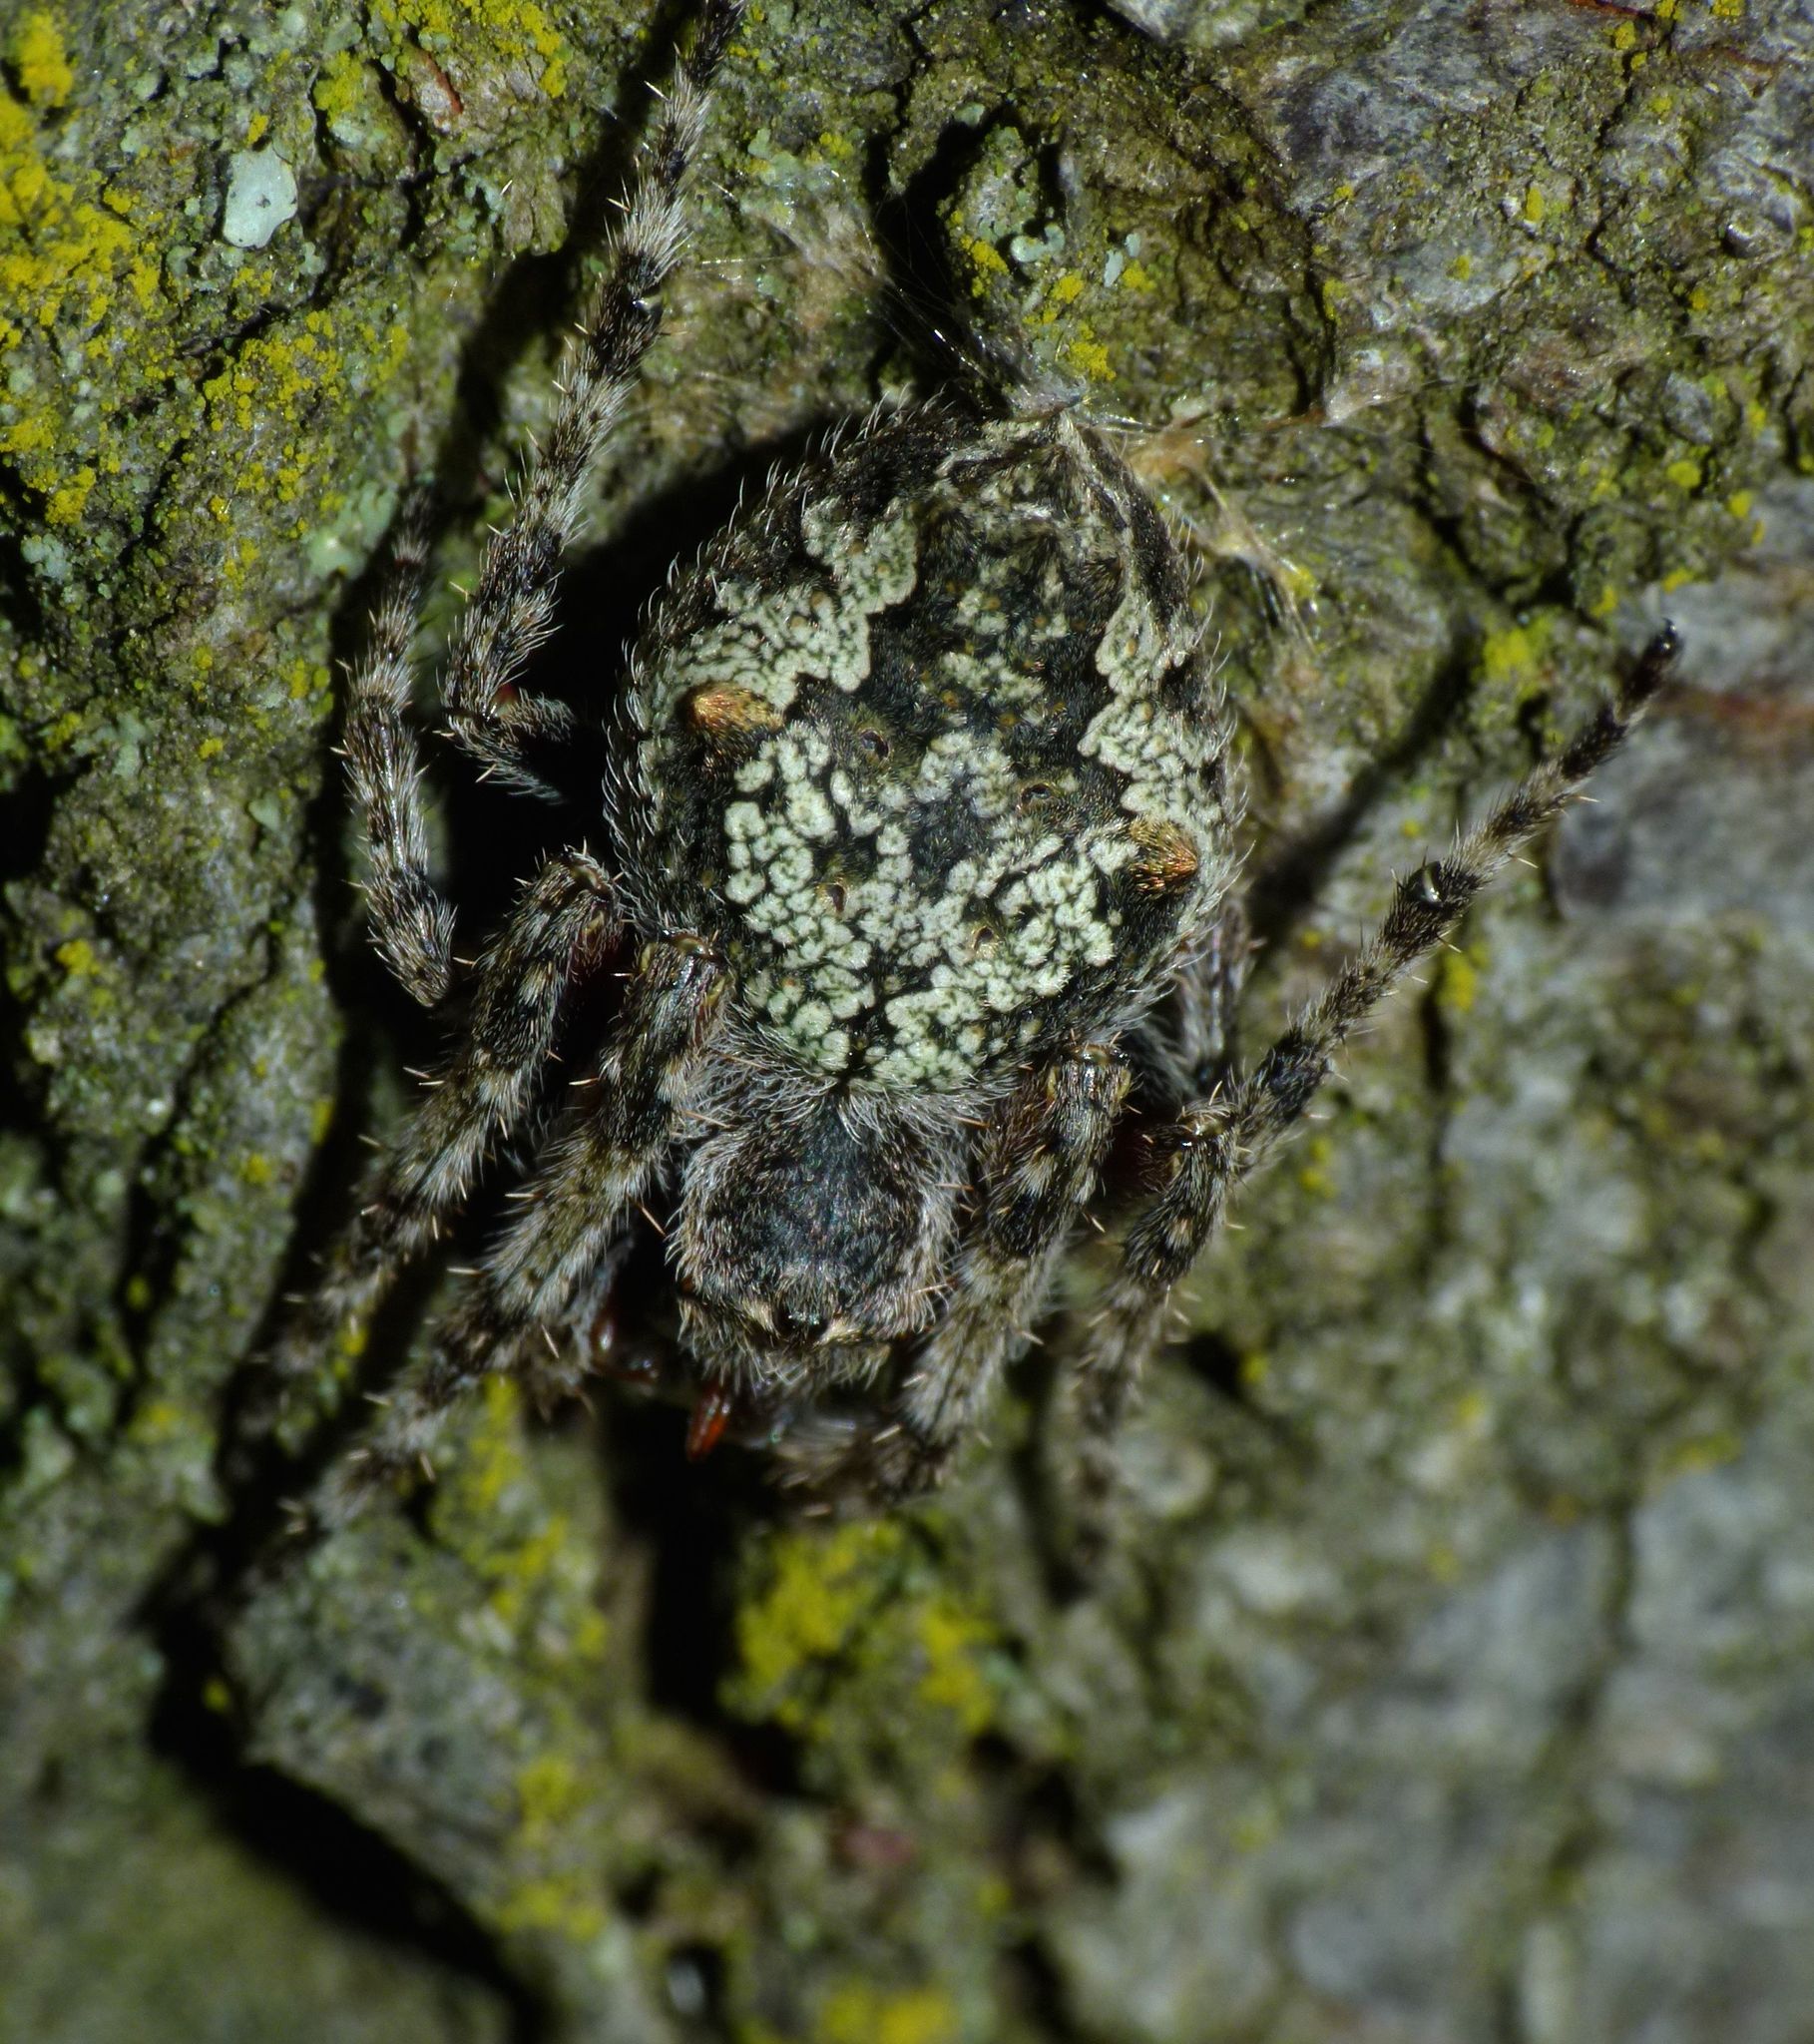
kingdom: Animalia
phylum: Arthropoda
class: Arachnida
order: Araneae
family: Araneidae
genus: Eriophora
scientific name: Eriophora pustulosa
